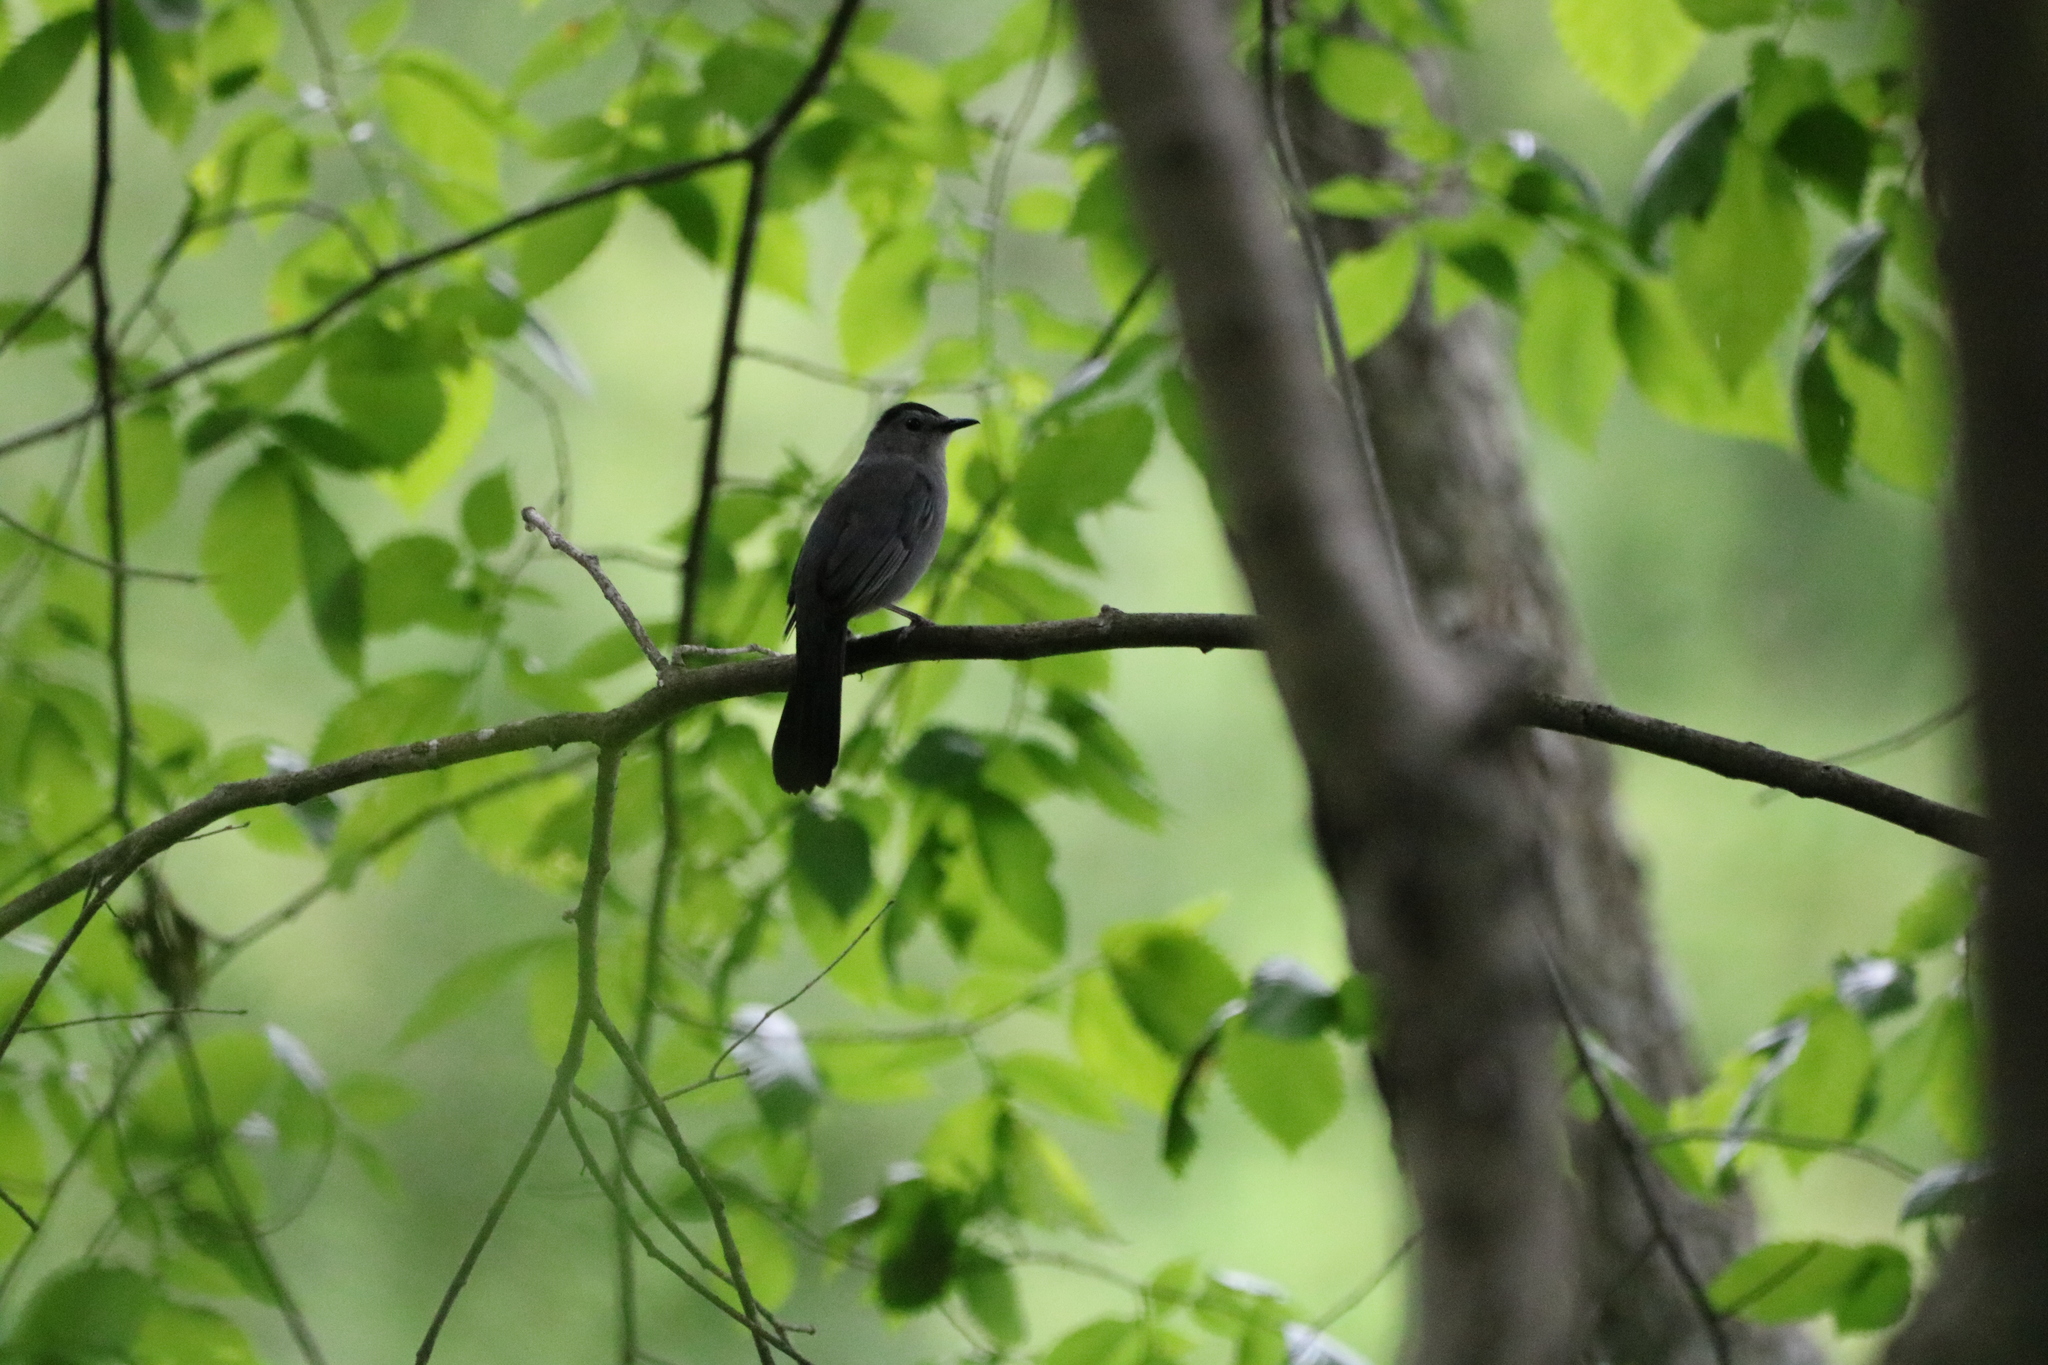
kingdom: Animalia
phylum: Chordata
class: Aves
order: Passeriformes
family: Mimidae
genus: Dumetella
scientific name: Dumetella carolinensis
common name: Gray catbird
